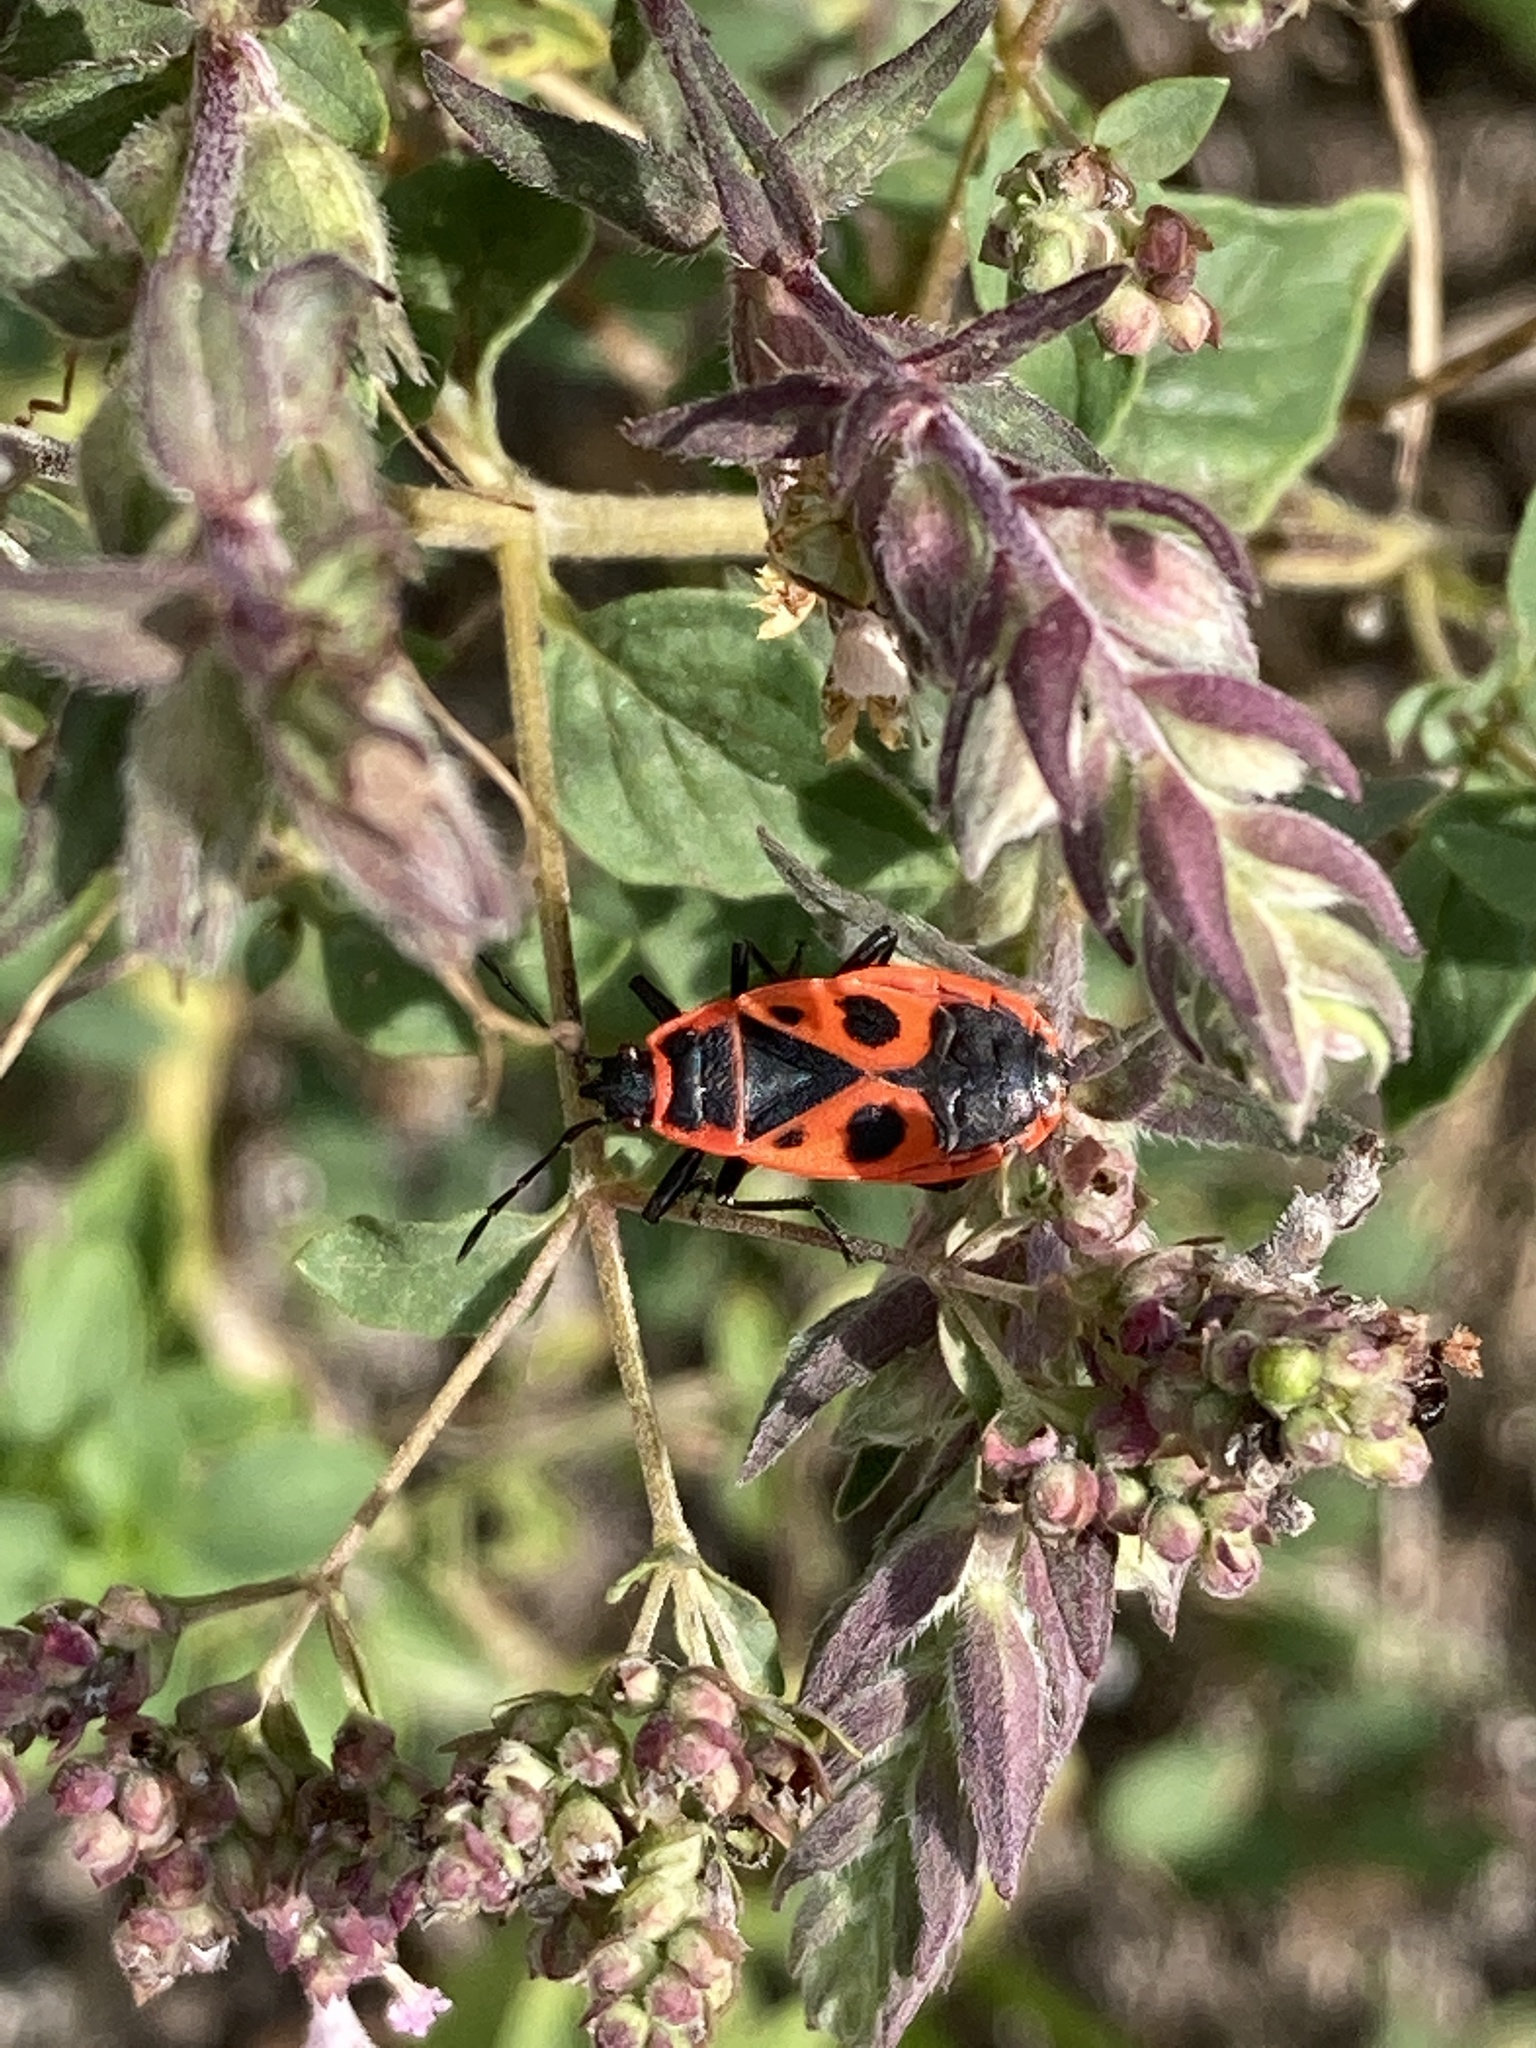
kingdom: Animalia
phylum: Arthropoda
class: Insecta
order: Hemiptera
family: Pyrrhocoridae
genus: Pyrrhocoris
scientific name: Pyrrhocoris apterus
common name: Firebug
